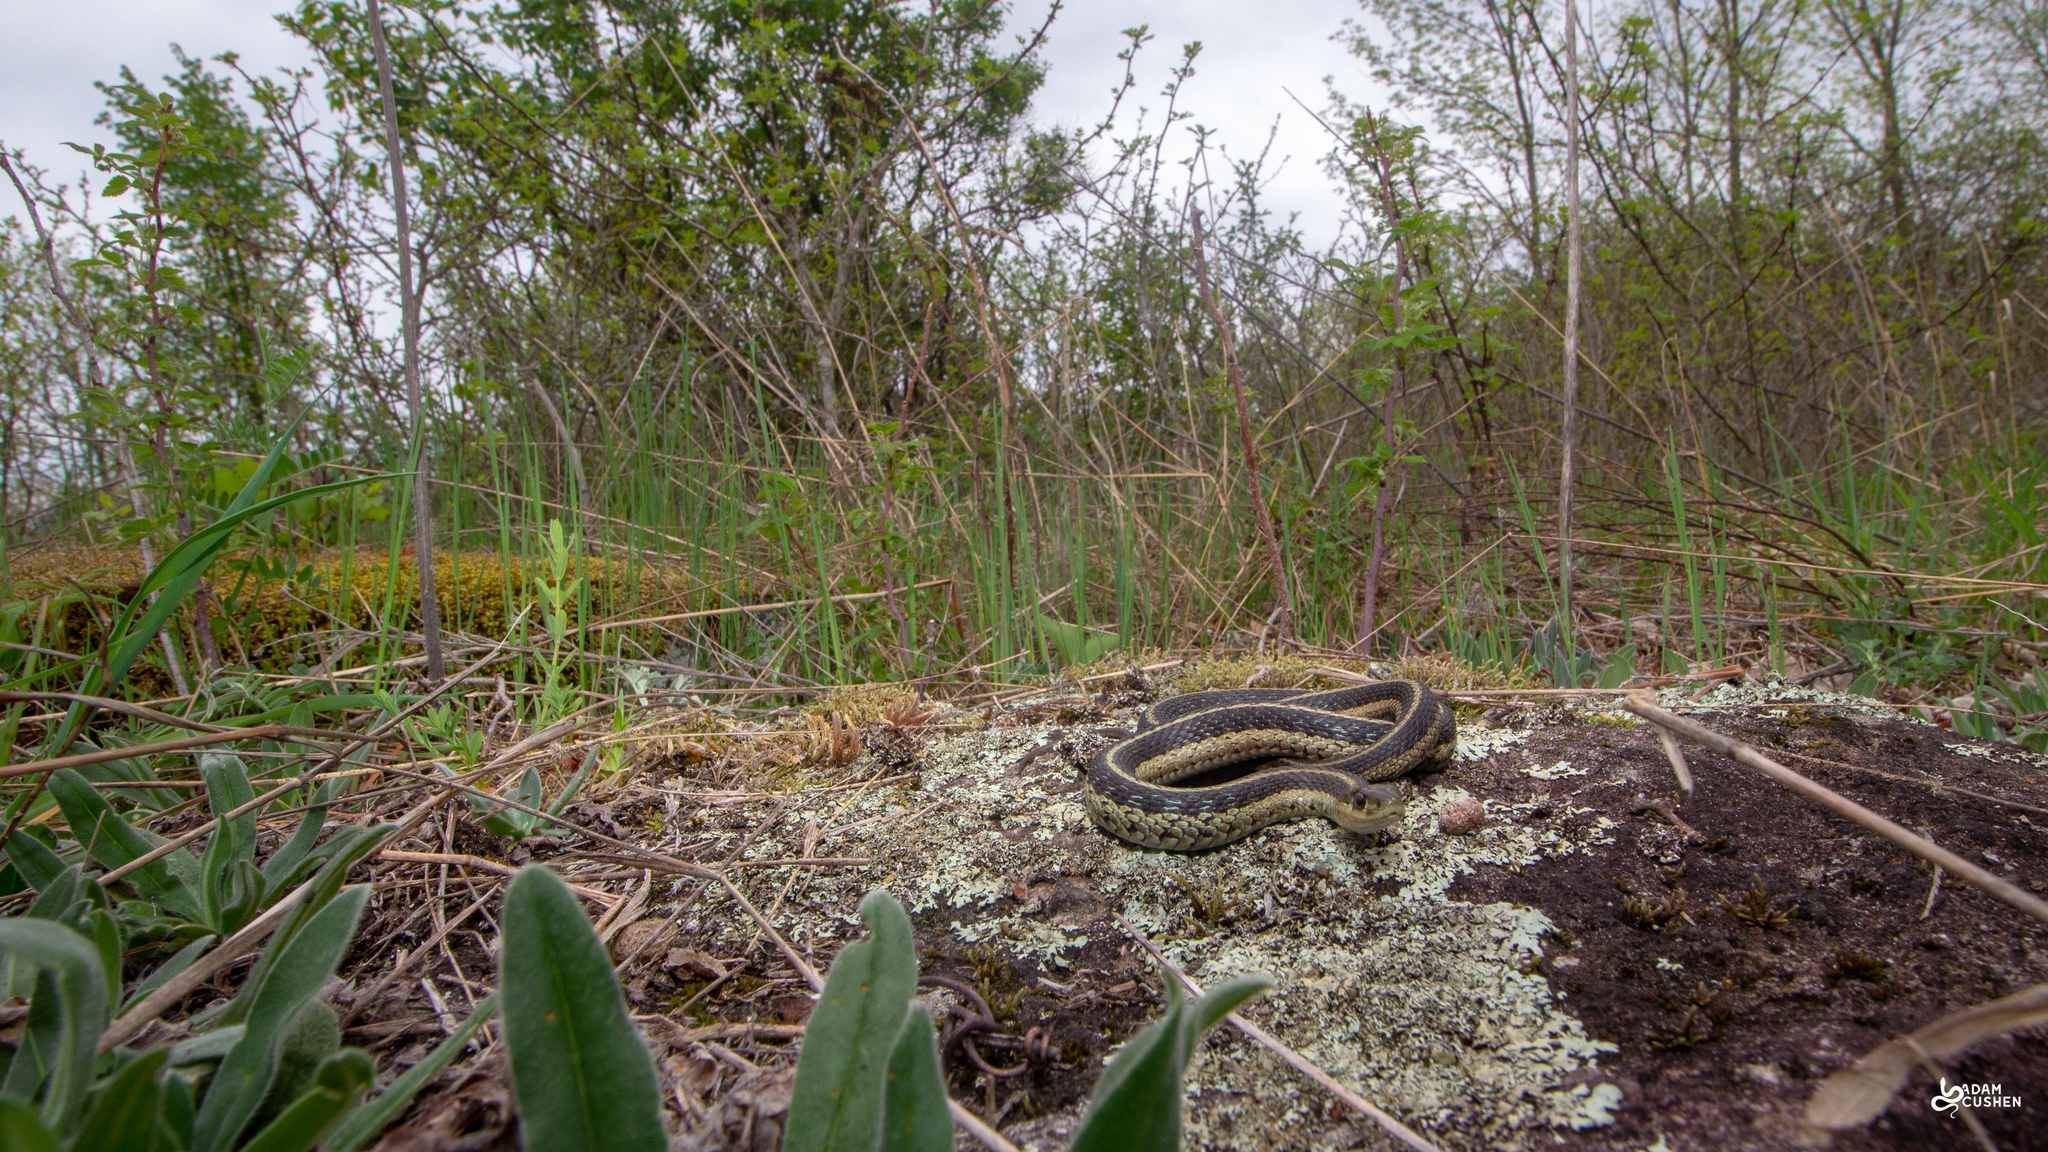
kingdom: Animalia
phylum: Chordata
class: Squamata
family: Colubridae
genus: Thamnophis
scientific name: Thamnophis sirtalis
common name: Common garter snake
